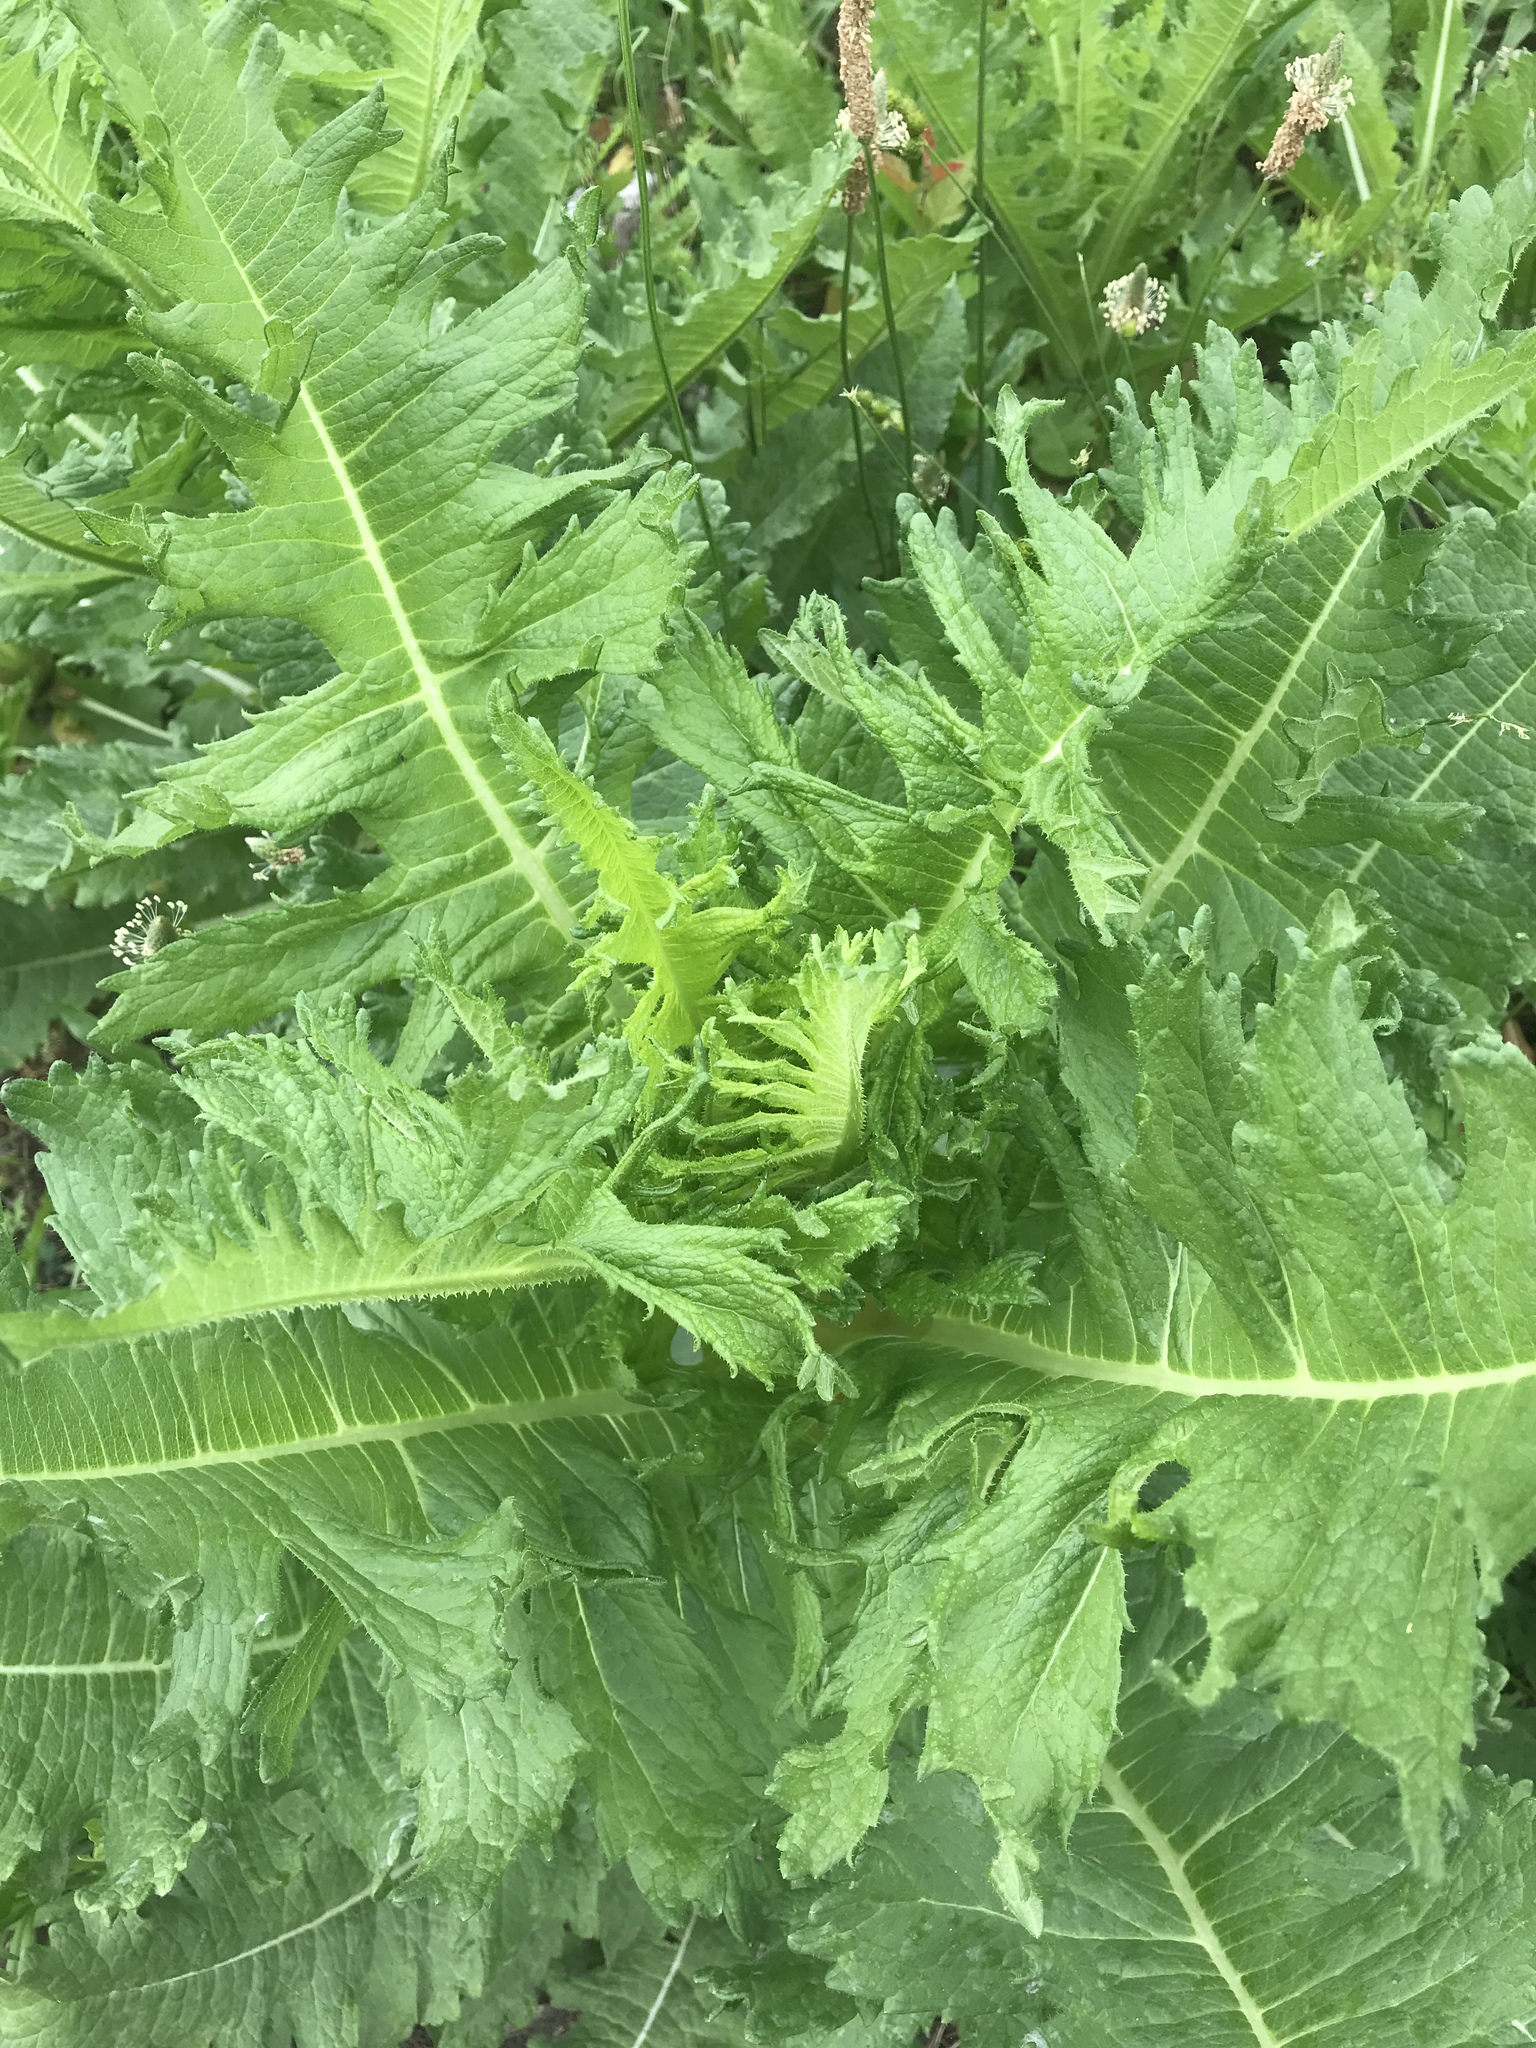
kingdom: Plantae
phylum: Tracheophyta
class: Magnoliopsida
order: Dipsacales
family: Caprifoliaceae
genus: Dipsacus
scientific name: Dipsacus laciniatus
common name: Cut-leaved teasel
